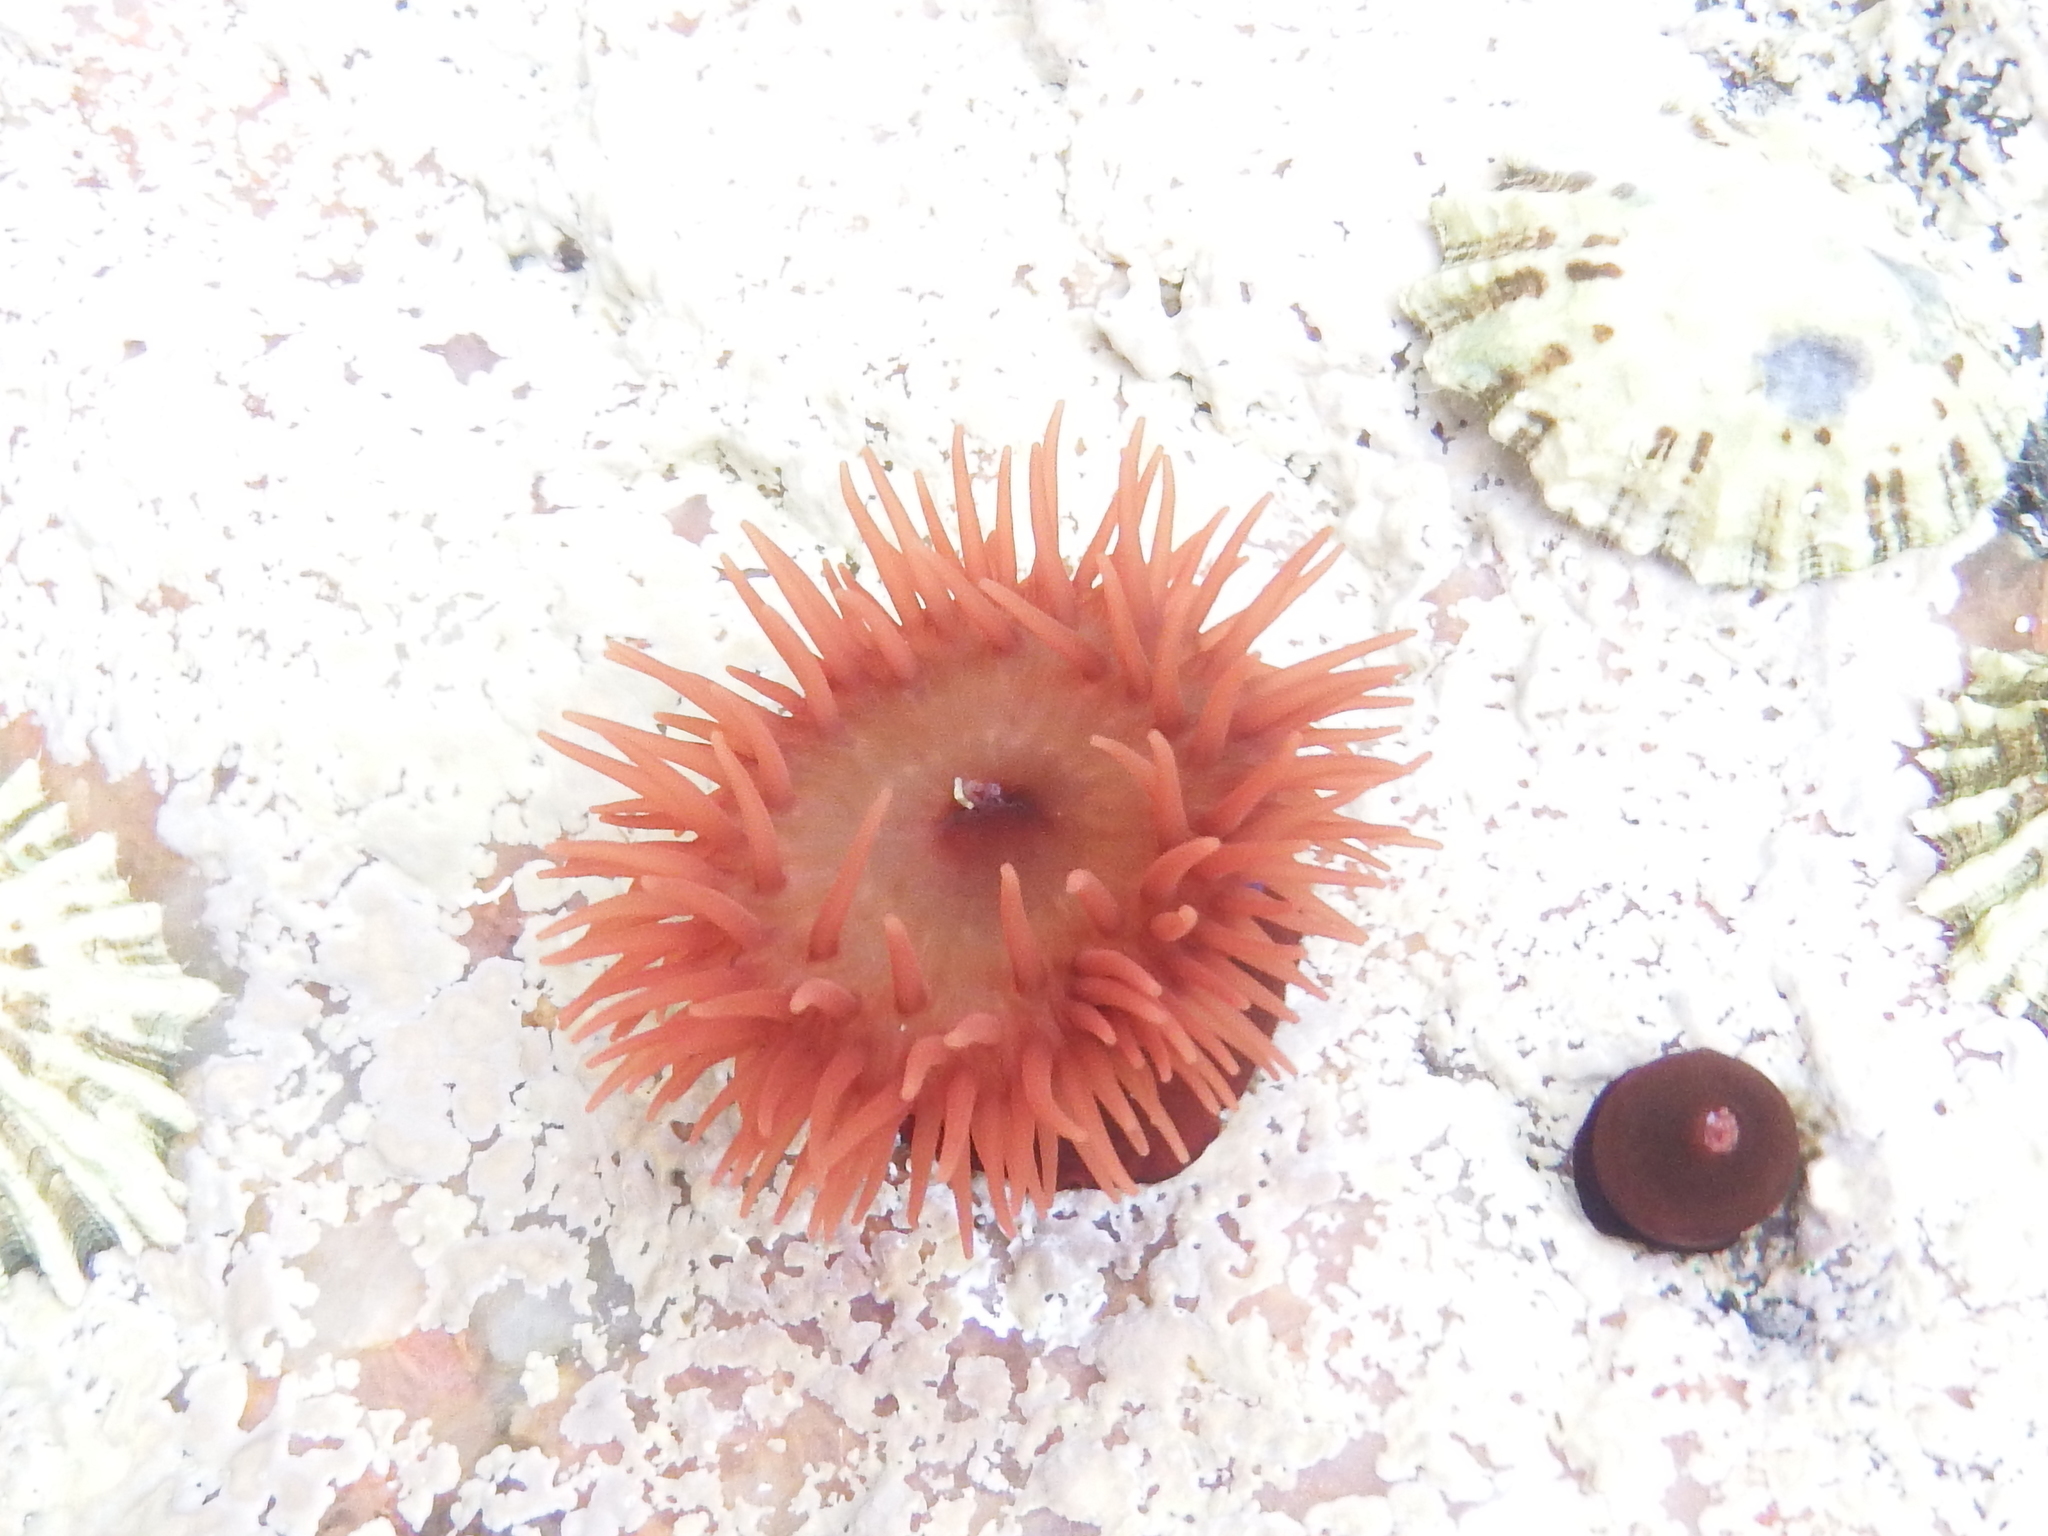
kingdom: Animalia
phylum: Cnidaria
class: Anthozoa
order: Actiniaria
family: Actiniidae
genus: Actinia
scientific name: Actinia equina
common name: Beadlet anemone
